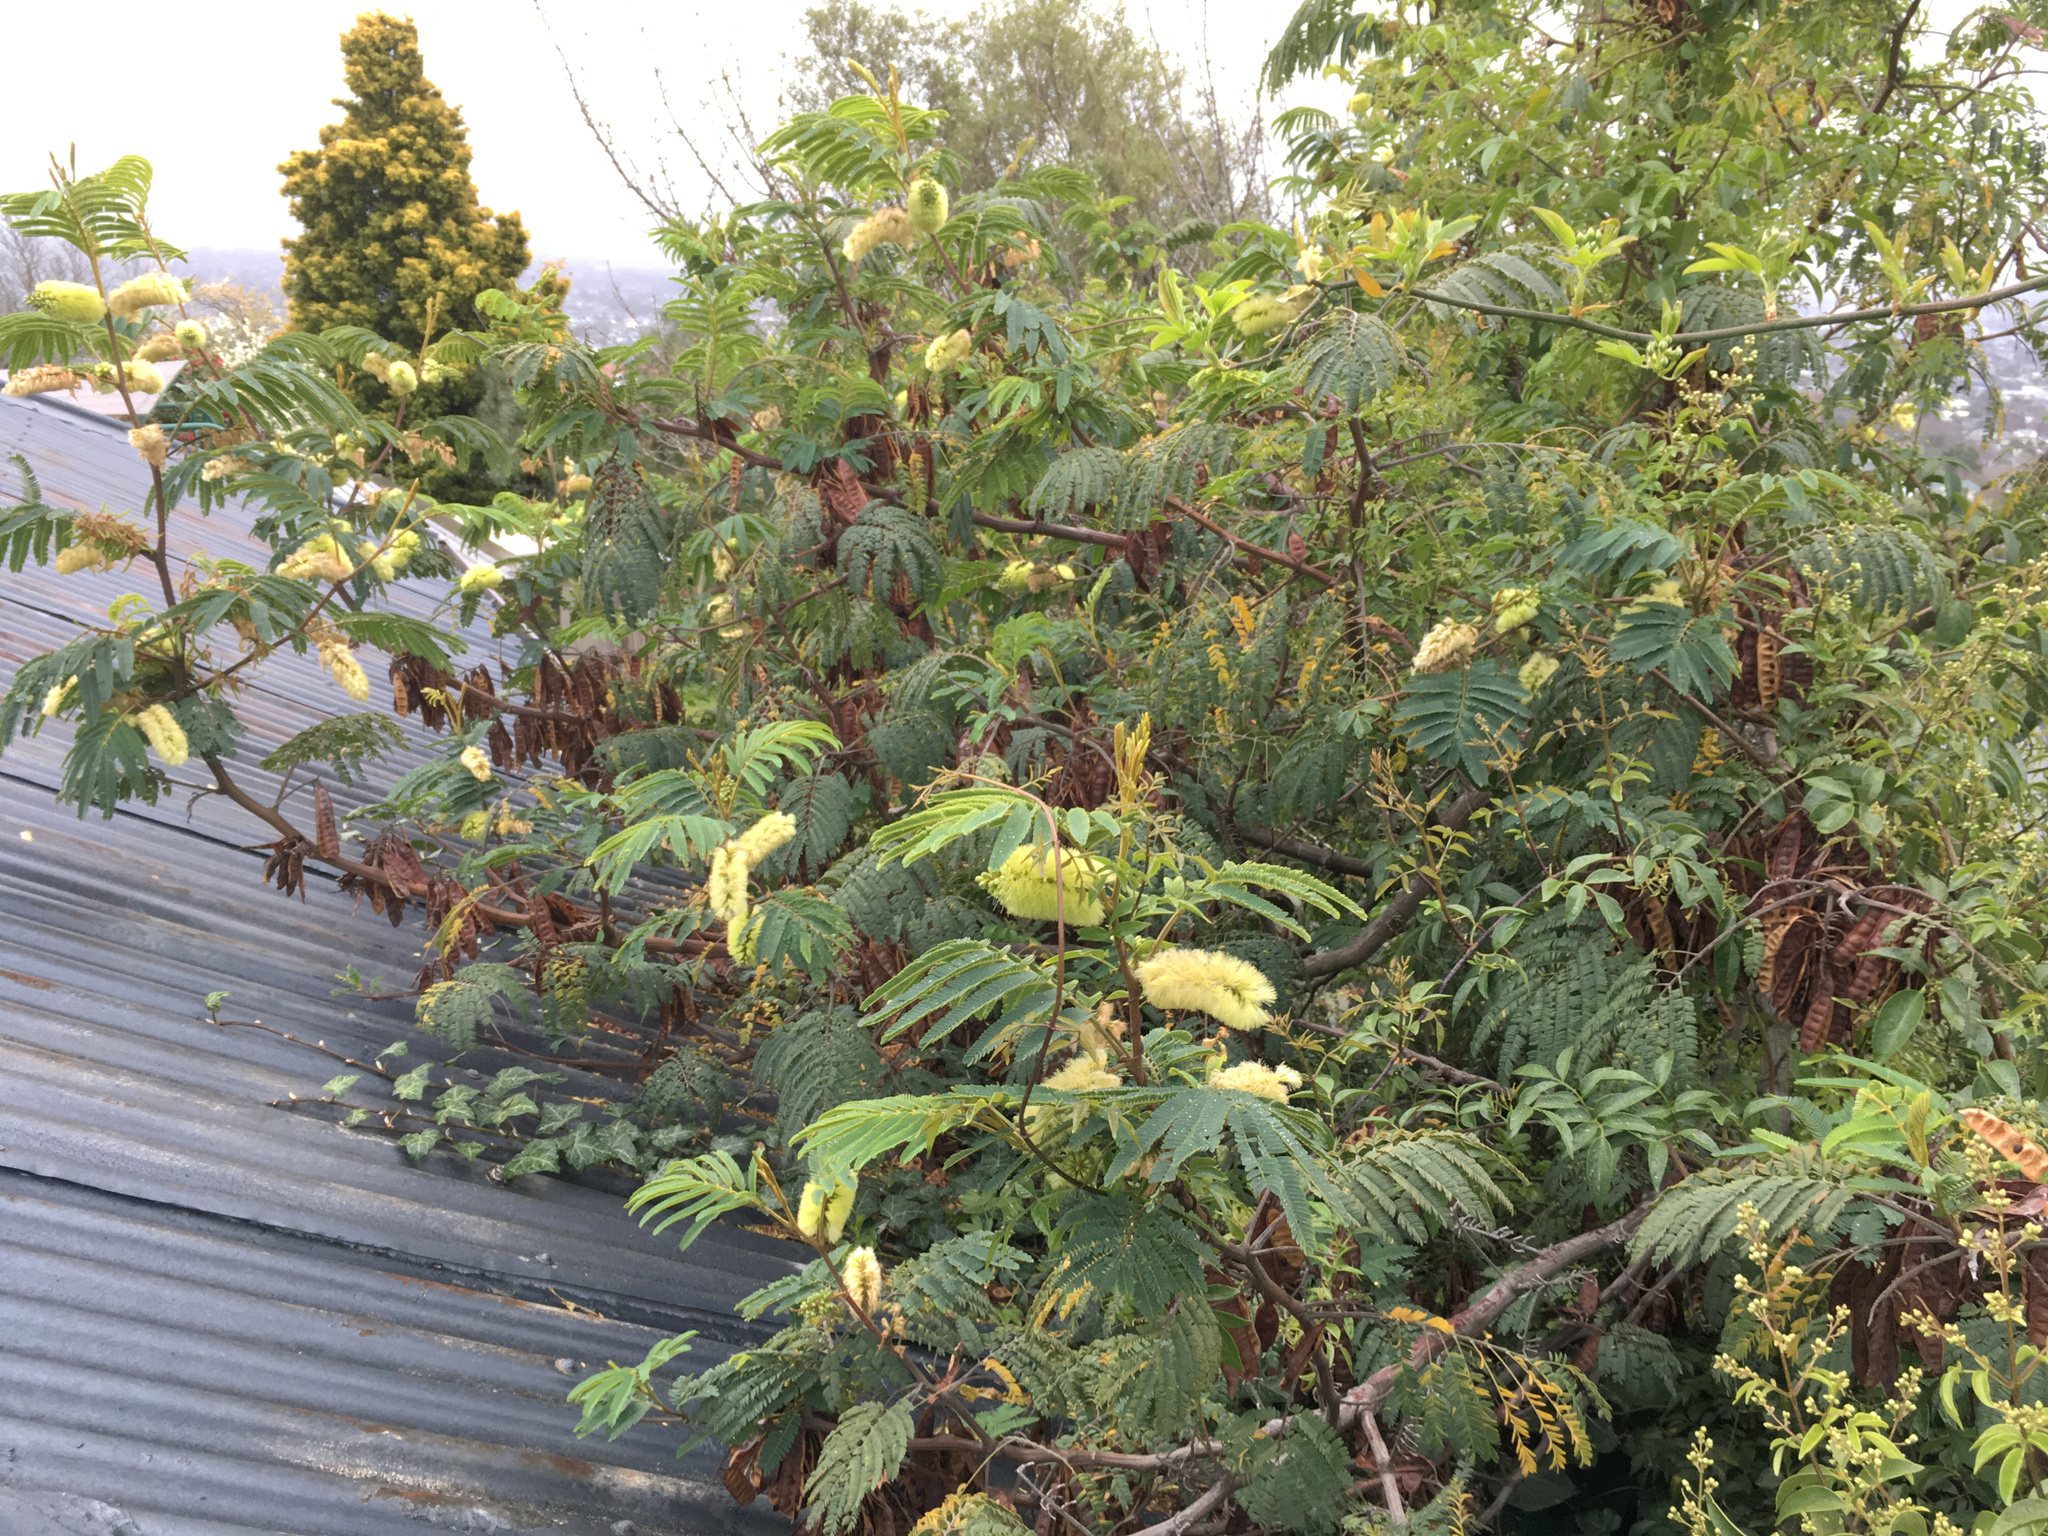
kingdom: Plantae
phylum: Tracheophyta
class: Magnoliopsida
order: Fabales
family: Fabaceae
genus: Paraserianthes
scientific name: Paraserianthes lophantha
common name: Plume albizia
